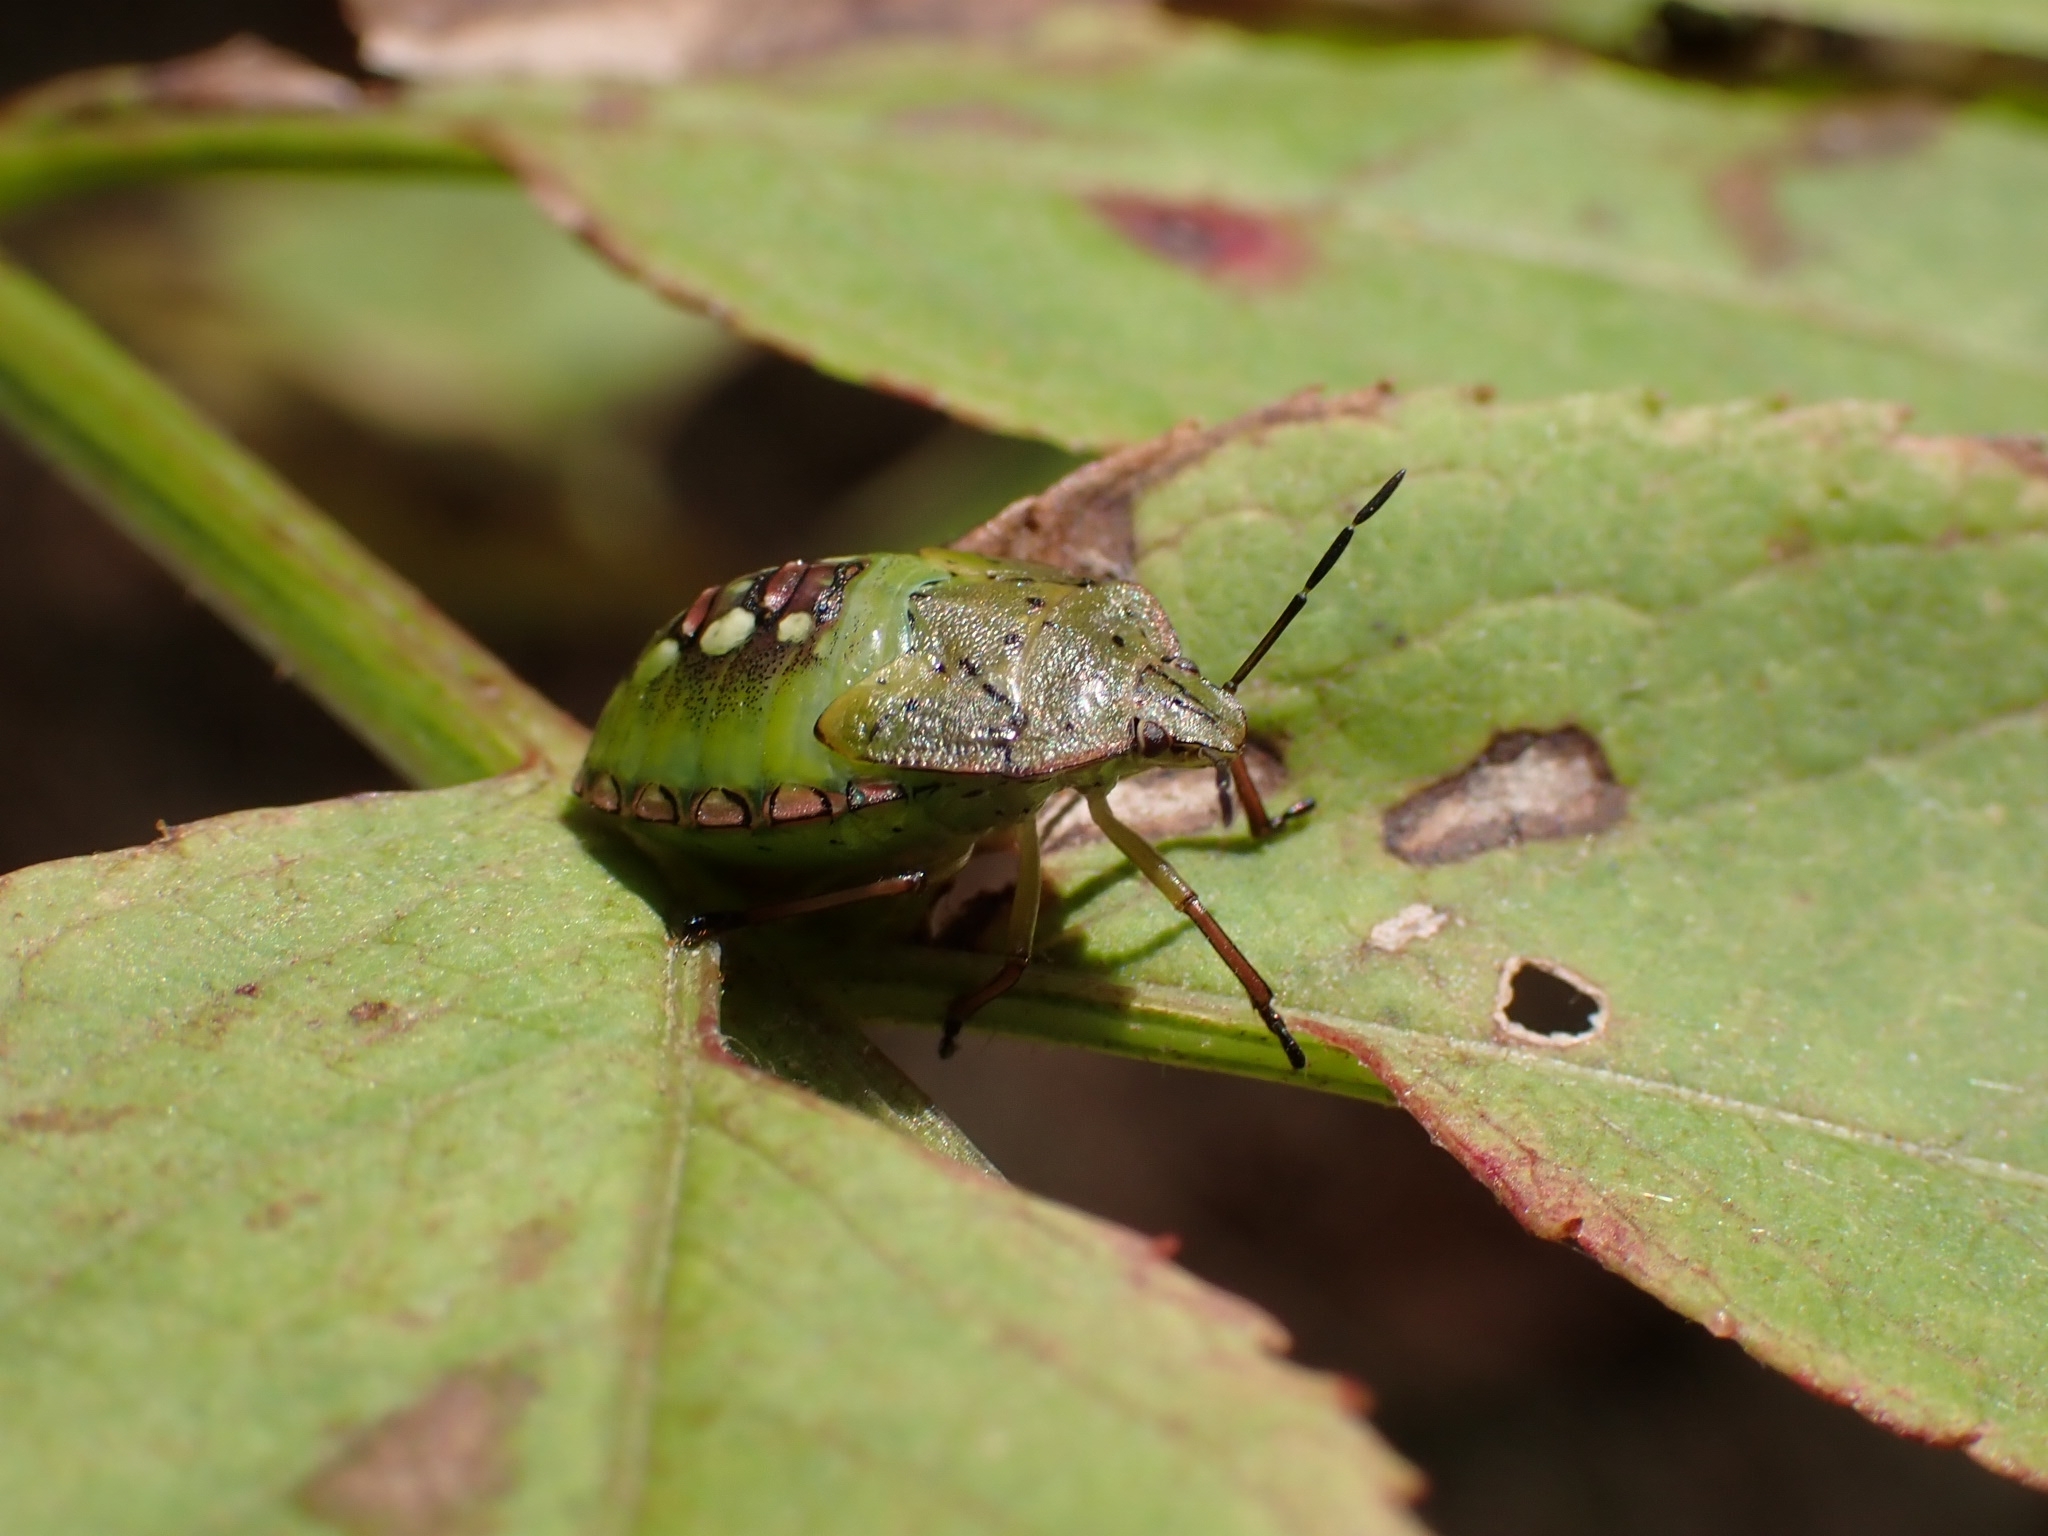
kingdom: Animalia
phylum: Arthropoda
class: Insecta
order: Hemiptera
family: Pentatomidae
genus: Nezara
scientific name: Nezara viridula
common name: Southern green stink bug
